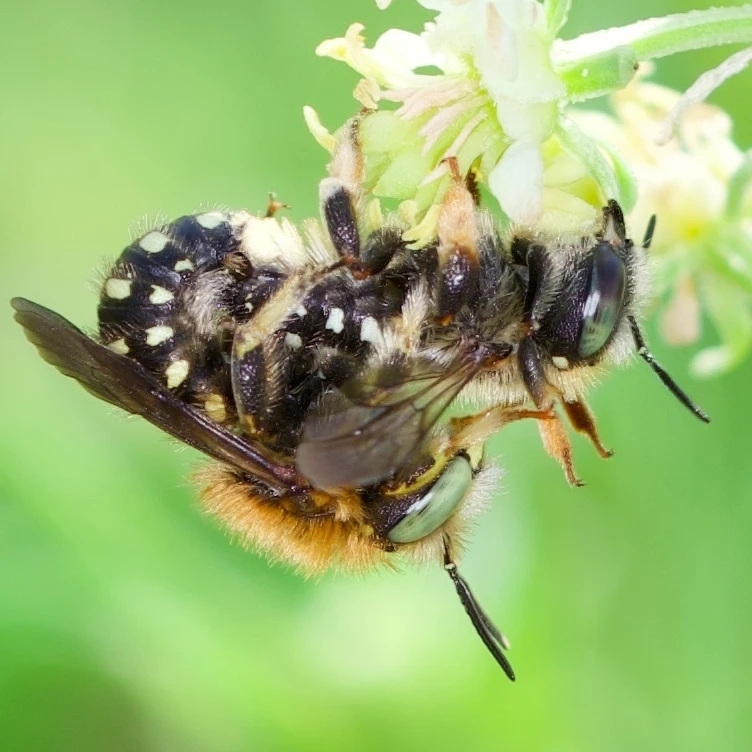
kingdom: Animalia
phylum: Arthropoda
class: Insecta
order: Hymenoptera
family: Megachilidae
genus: Anthidium
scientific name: Anthidium punctatum
